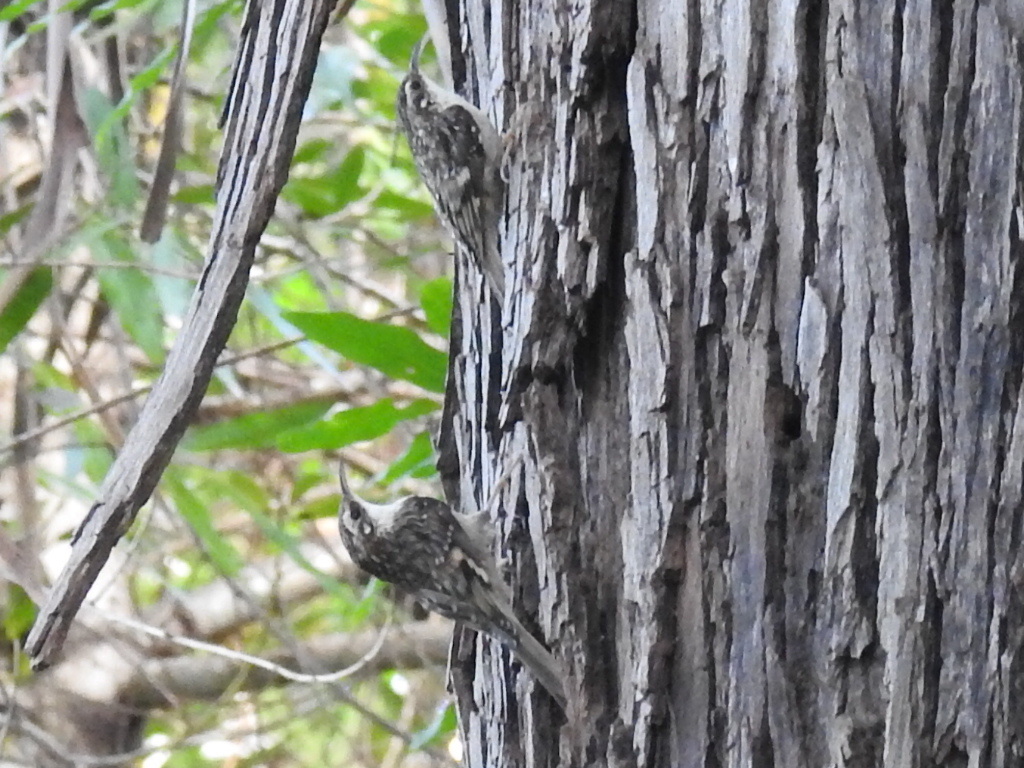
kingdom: Animalia
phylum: Chordata
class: Aves
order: Passeriformes
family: Certhiidae
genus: Certhia
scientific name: Certhia americana
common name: Brown creeper
